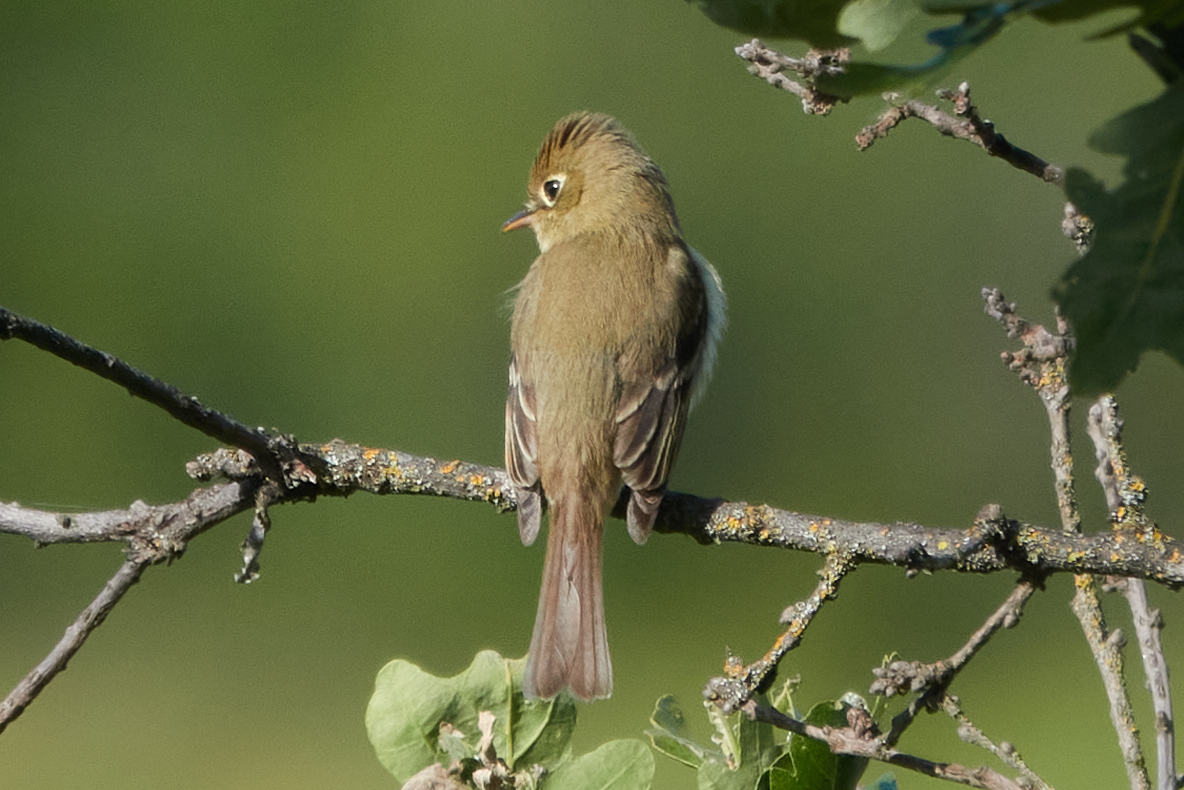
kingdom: Animalia
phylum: Chordata
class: Aves
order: Passeriformes
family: Tyrannidae
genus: Empidonax
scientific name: Empidonax difficilis
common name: Pacific-slope flycatcher
